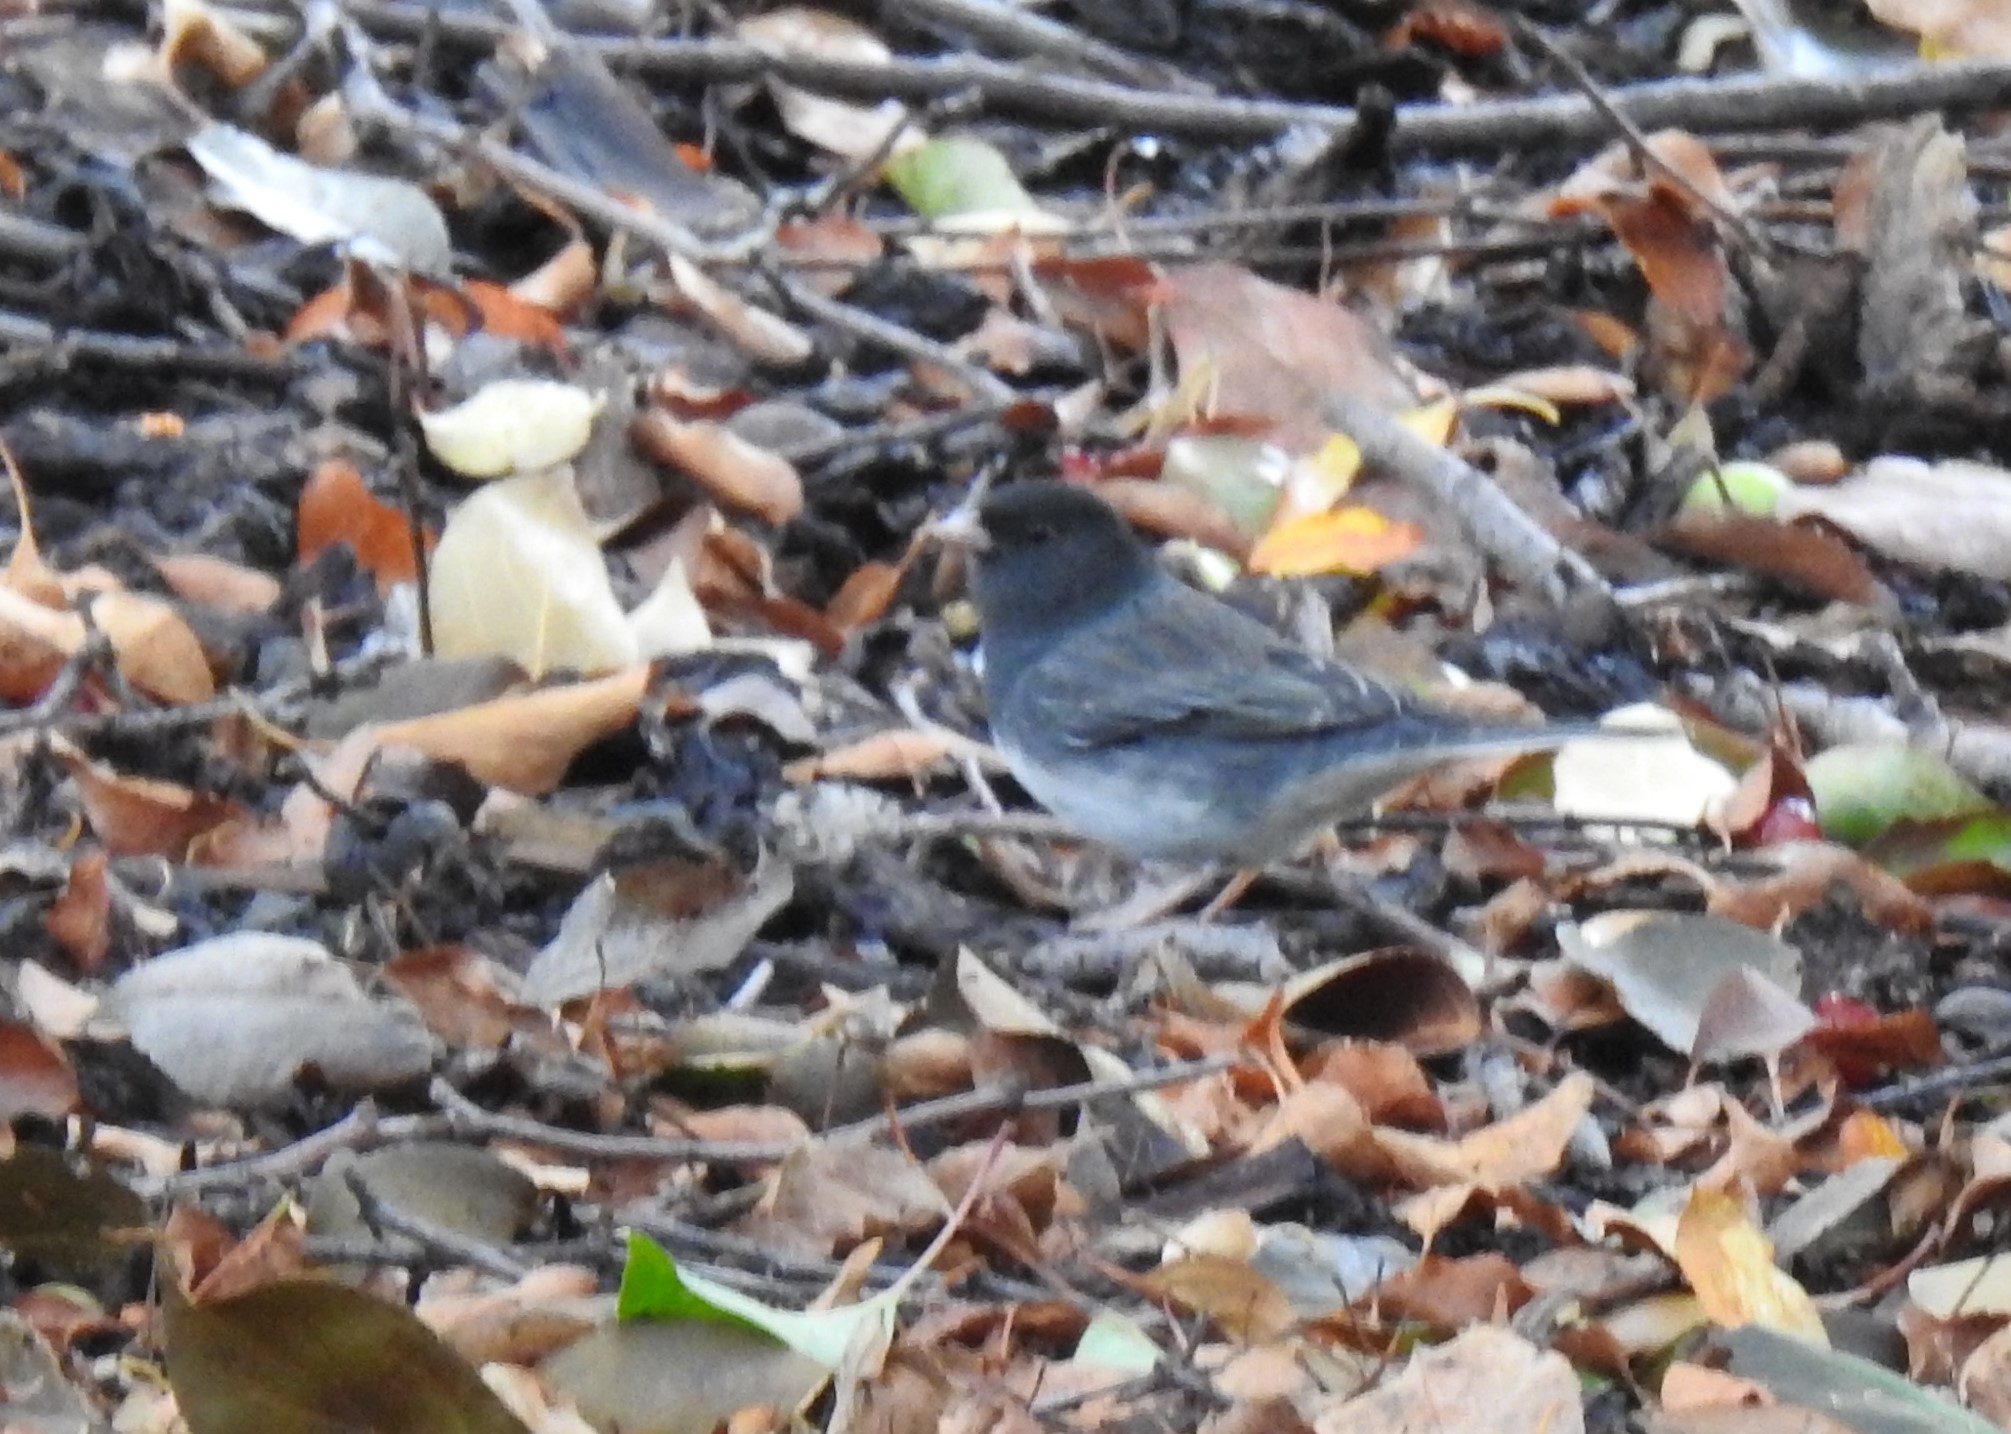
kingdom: Animalia
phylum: Chordata
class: Aves
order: Passeriformes
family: Passerellidae
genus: Junco
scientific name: Junco hyemalis
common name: Dark-eyed junco
